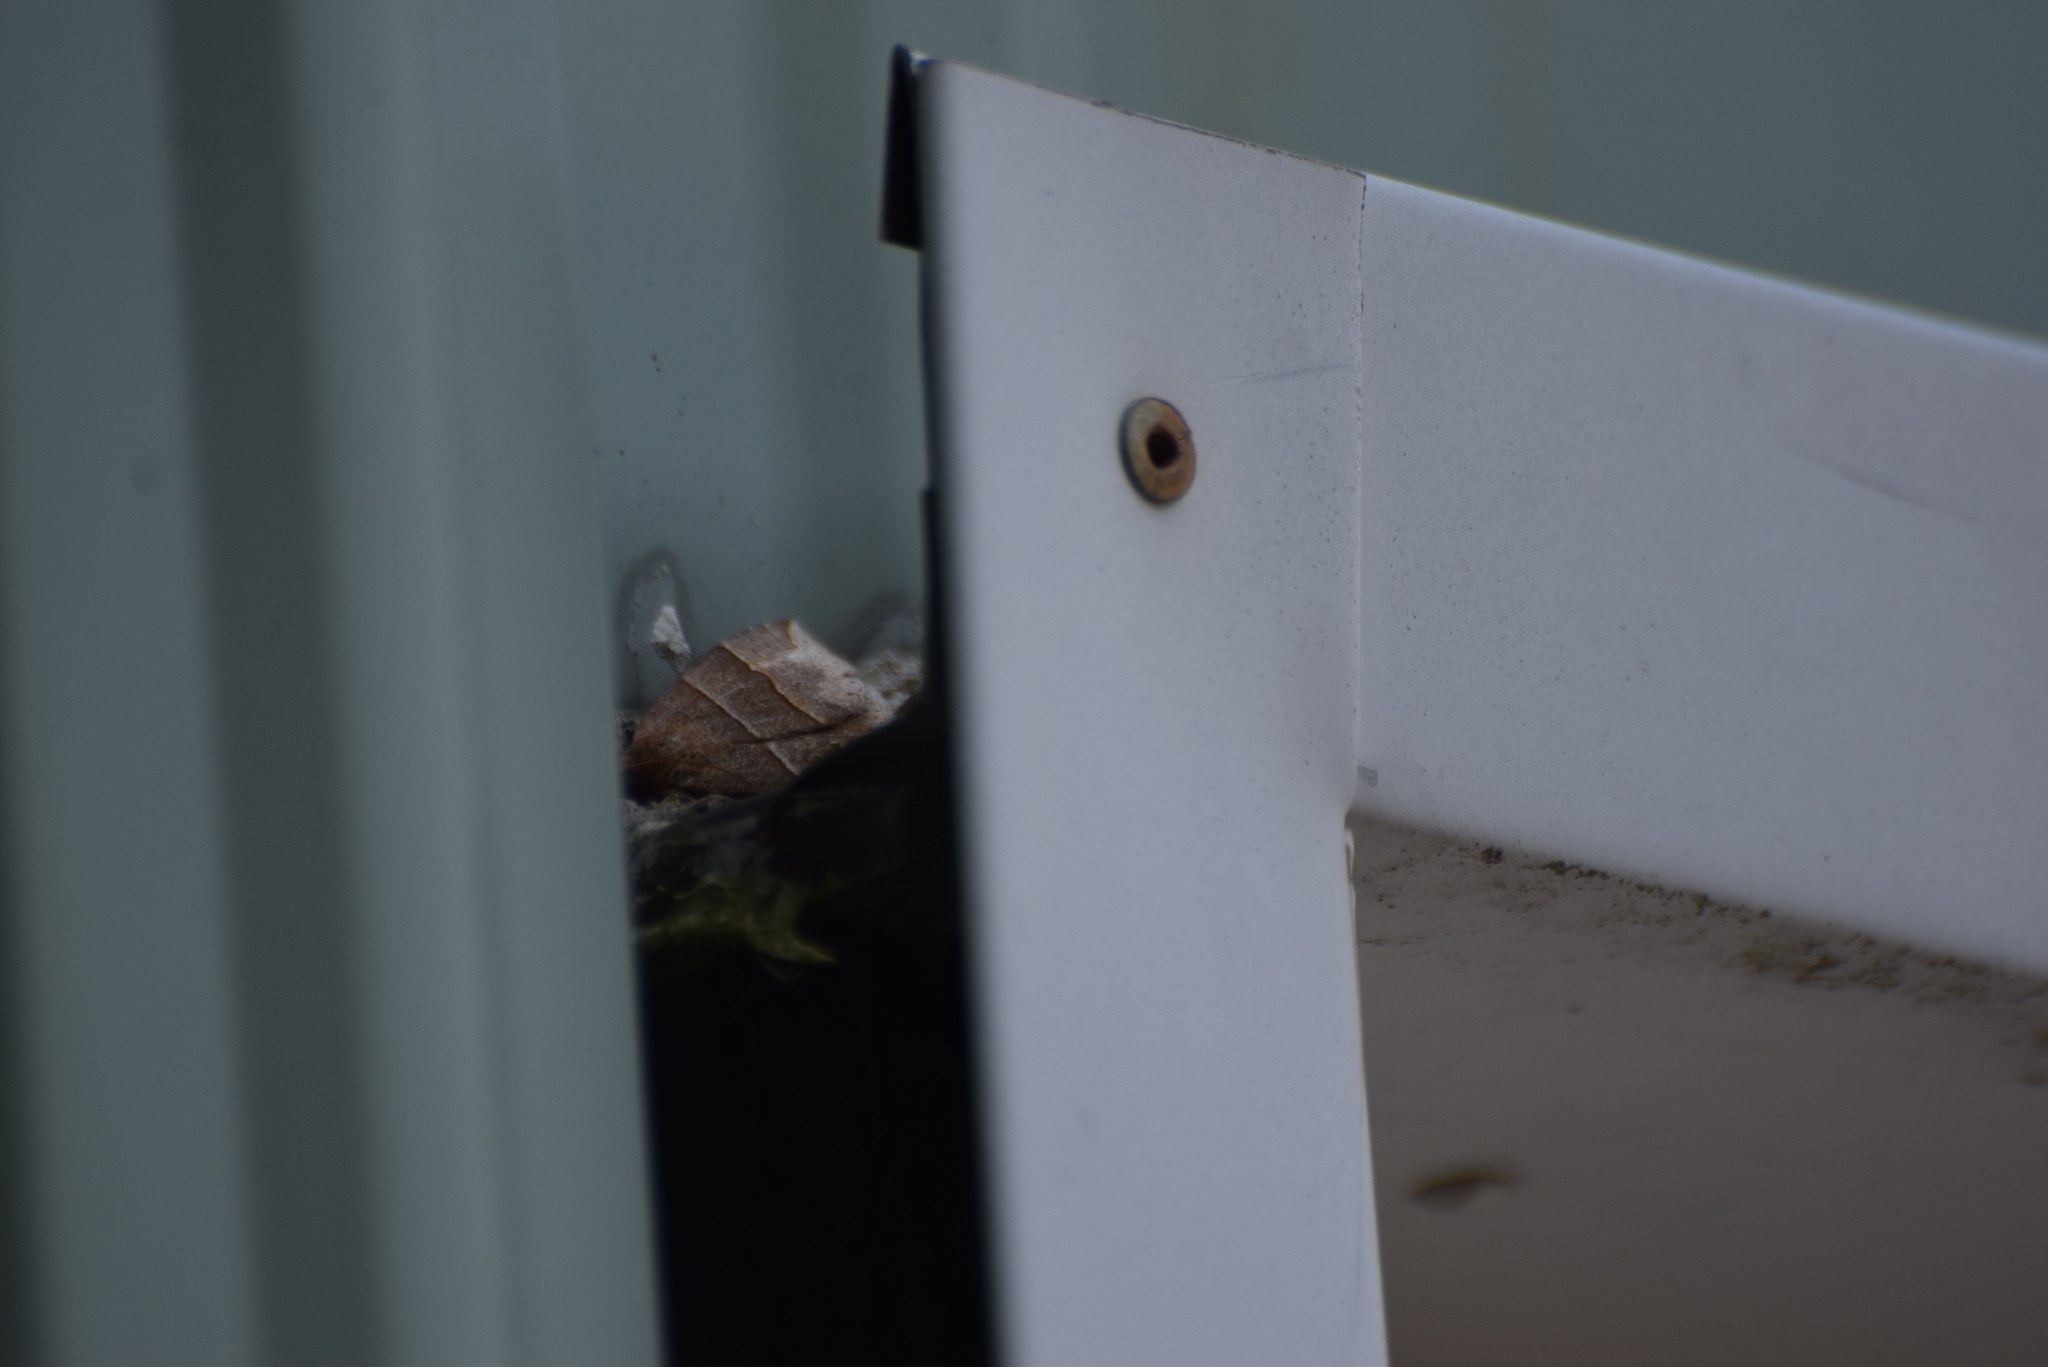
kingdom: Animalia
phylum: Arthropoda
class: Insecta
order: Lepidoptera
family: Erebidae
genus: Parallelia
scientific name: Parallelia bistriaris
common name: Maple looper moth
